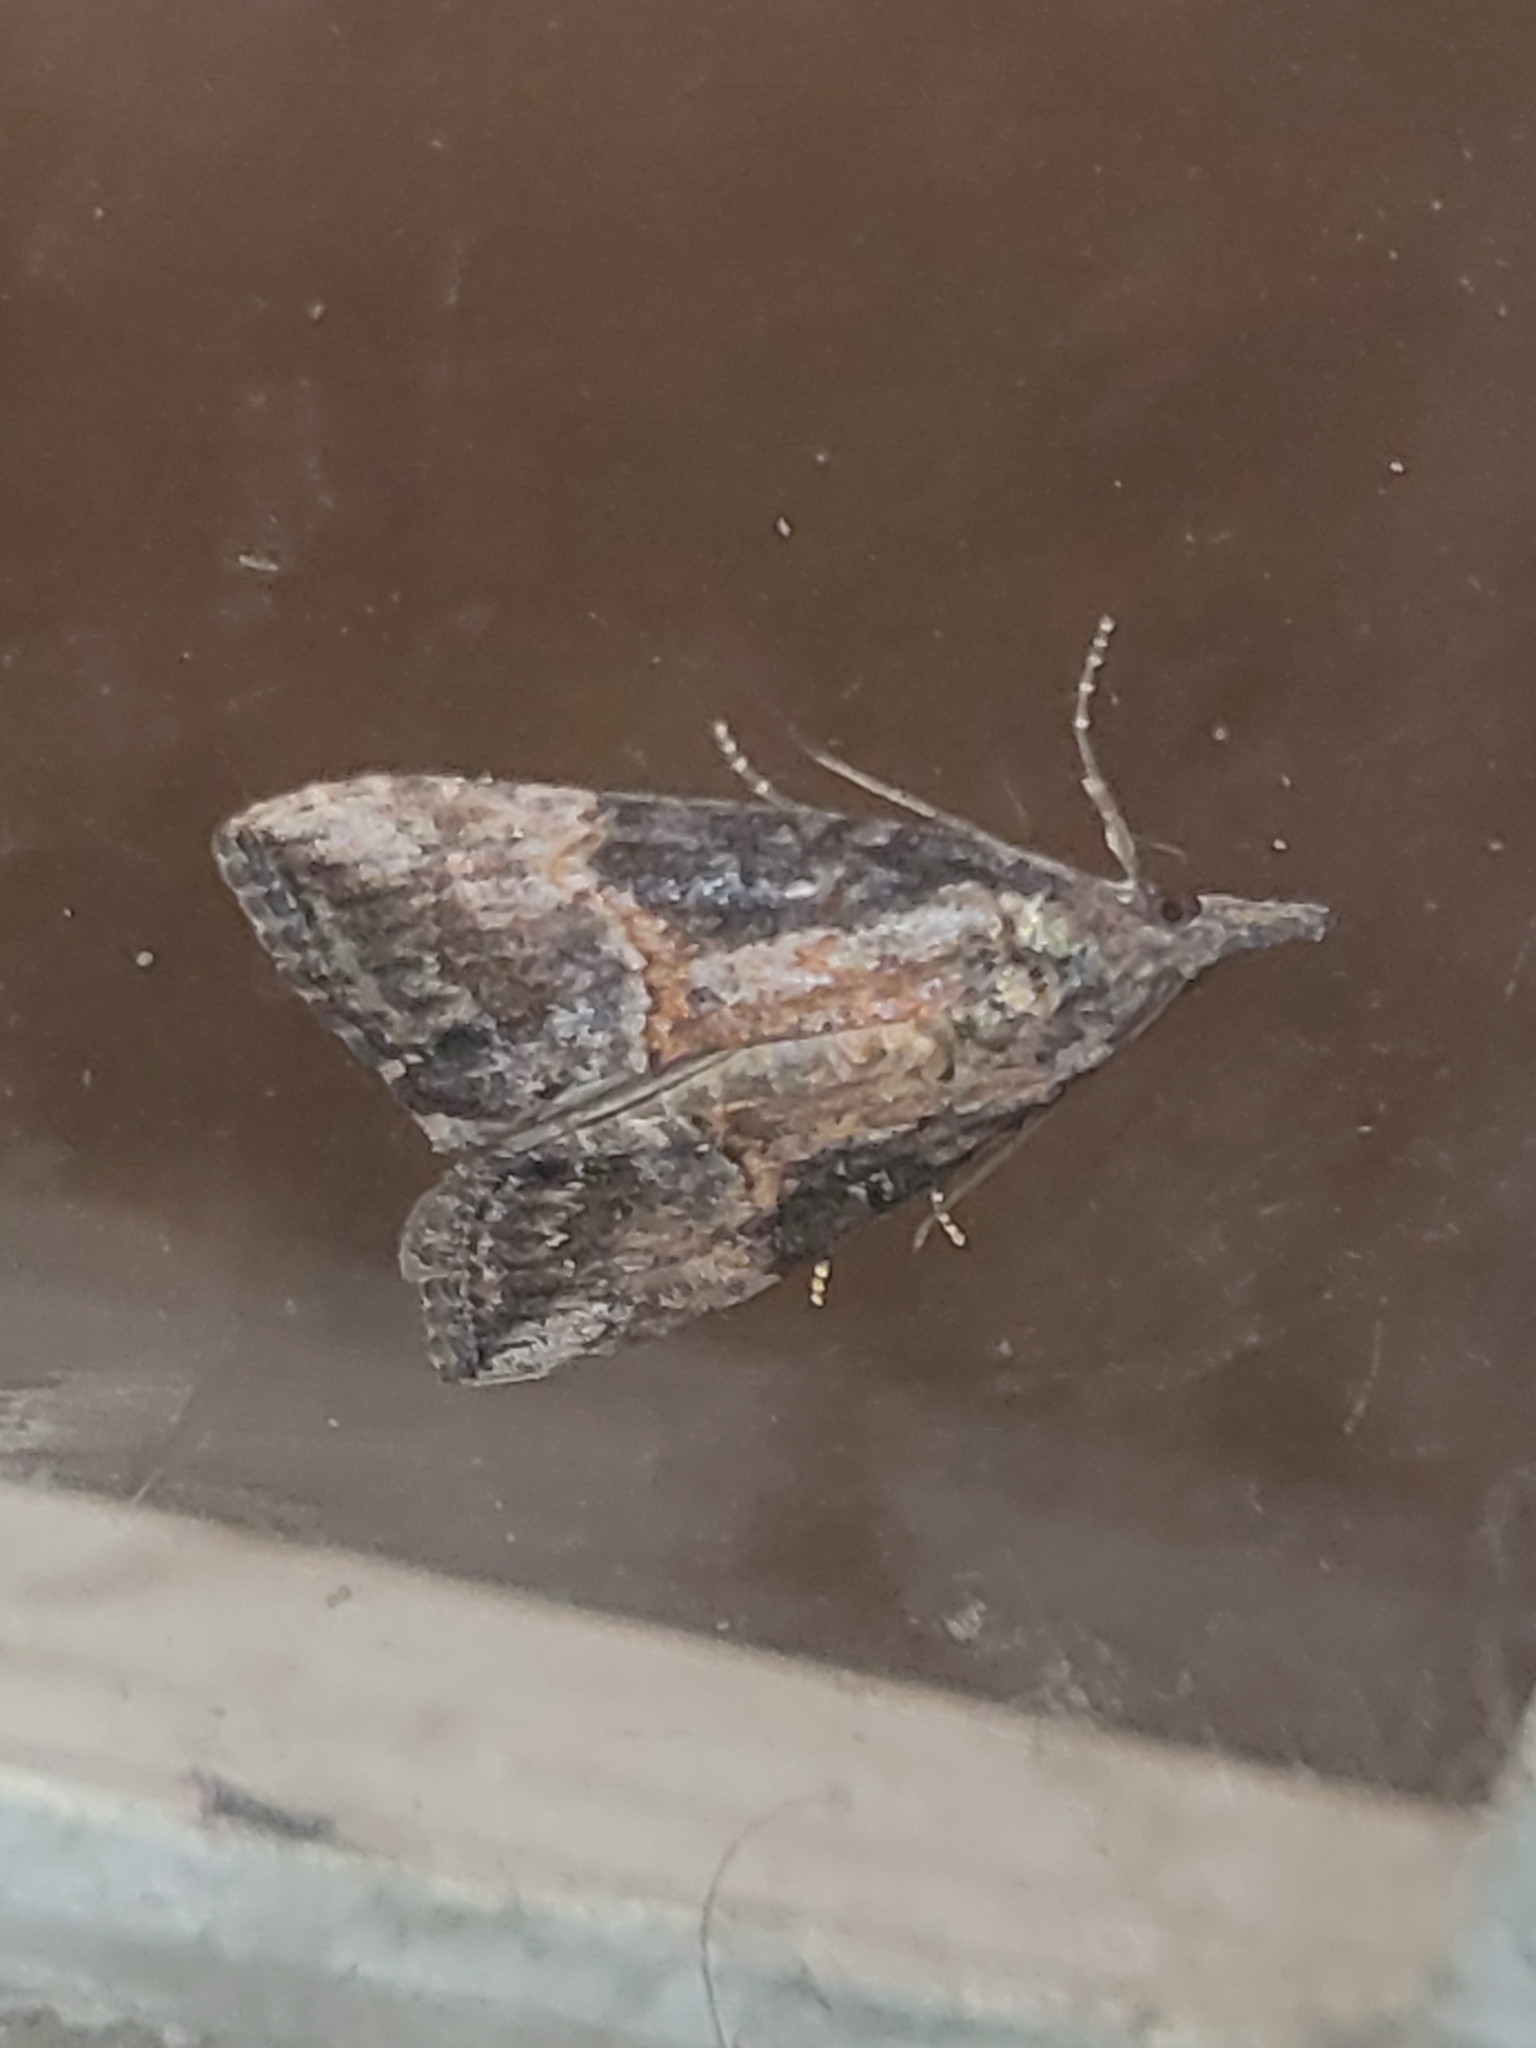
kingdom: Animalia
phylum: Arthropoda
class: Insecta
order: Lepidoptera
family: Erebidae
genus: Hypena
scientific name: Hypena scabra
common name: Green cloverworm
